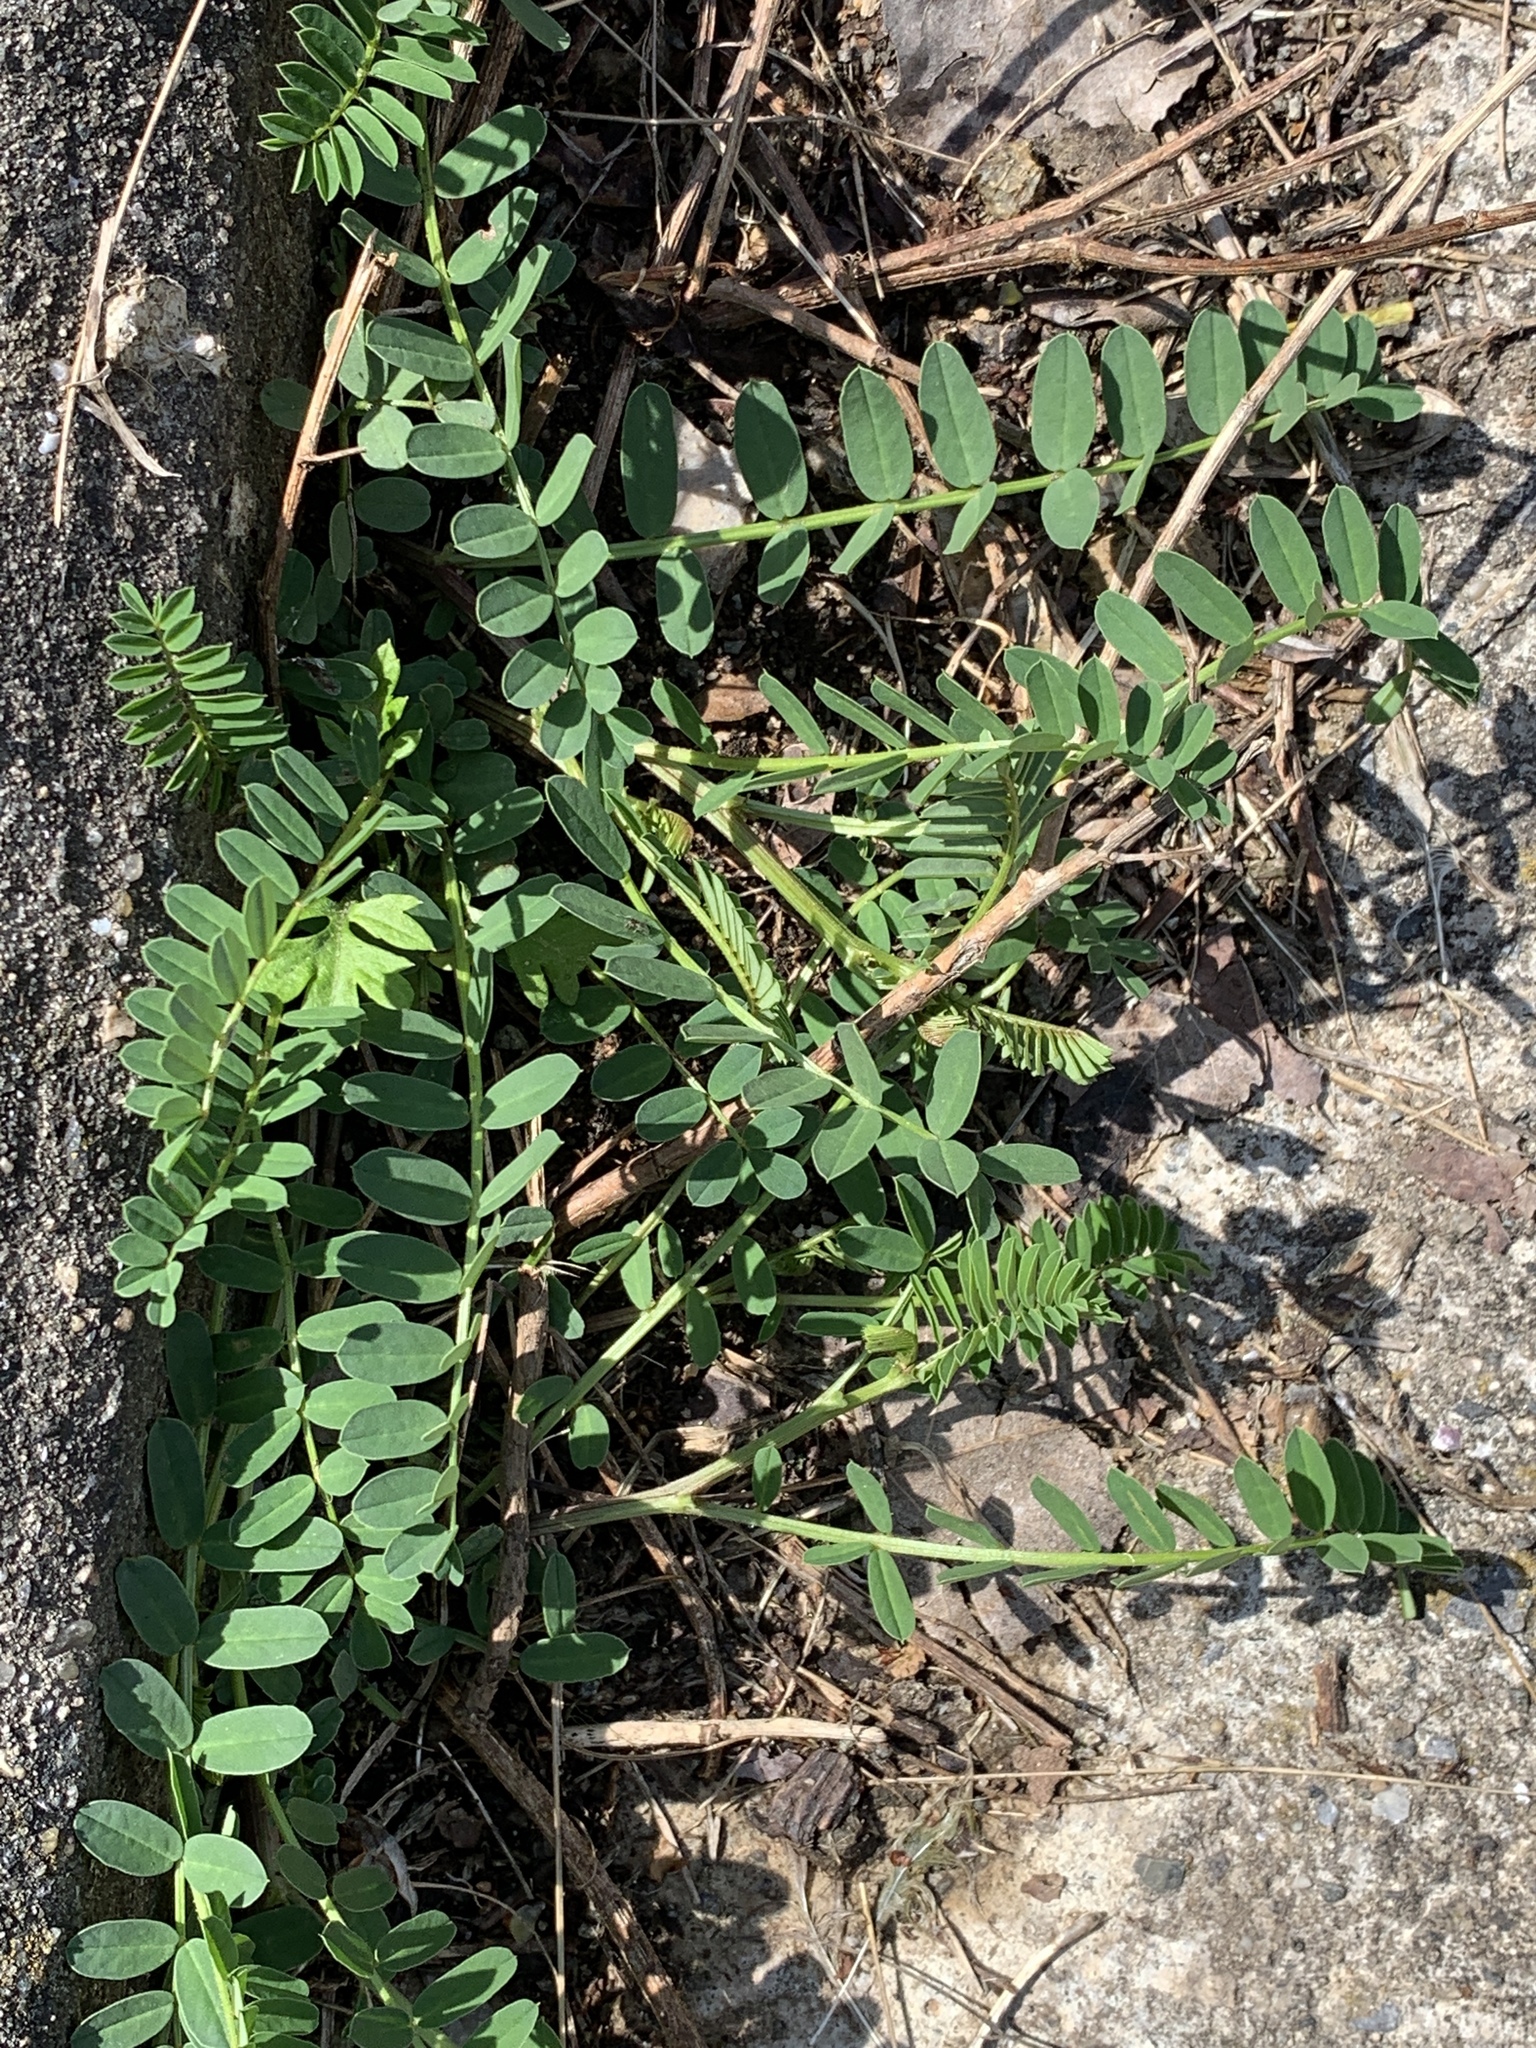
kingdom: Plantae
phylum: Tracheophyta
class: Magnoliopsida
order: Fabales
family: Fabaceae
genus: Coronilla
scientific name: Coronilla varia
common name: Crownvetch
